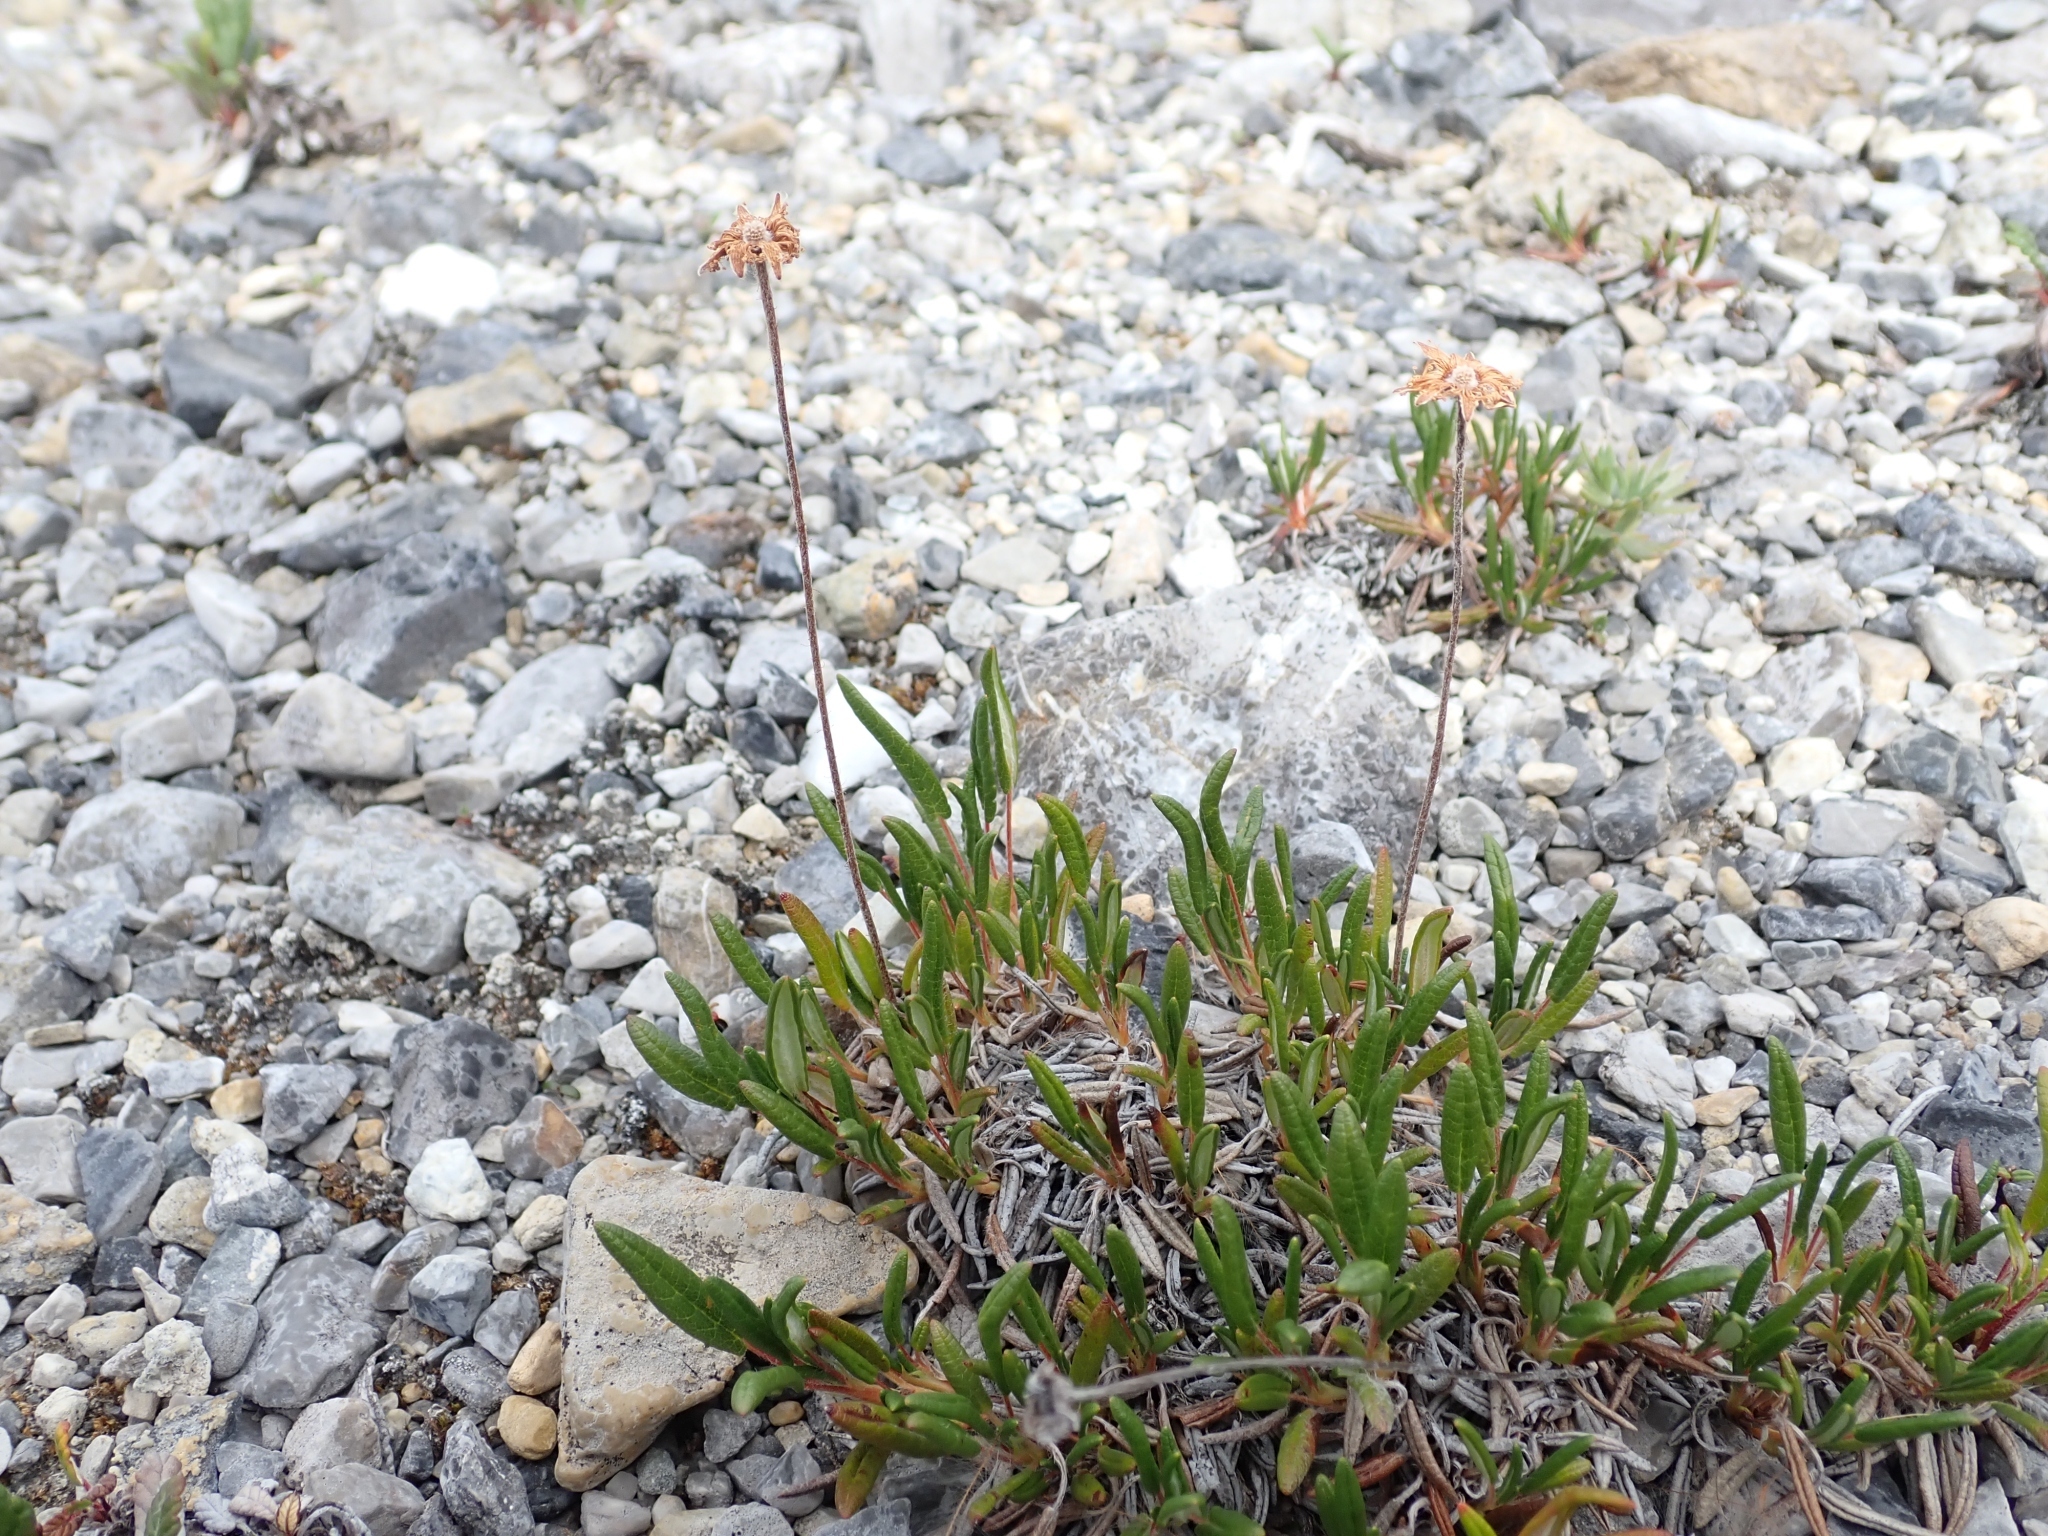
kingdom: Plantae
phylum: Tracheophyta
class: Magnoliopsida
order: Rosales
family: Rosaceae
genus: Dryas
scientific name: Dryas integrifolia
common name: Entire-leaved mountain avens
